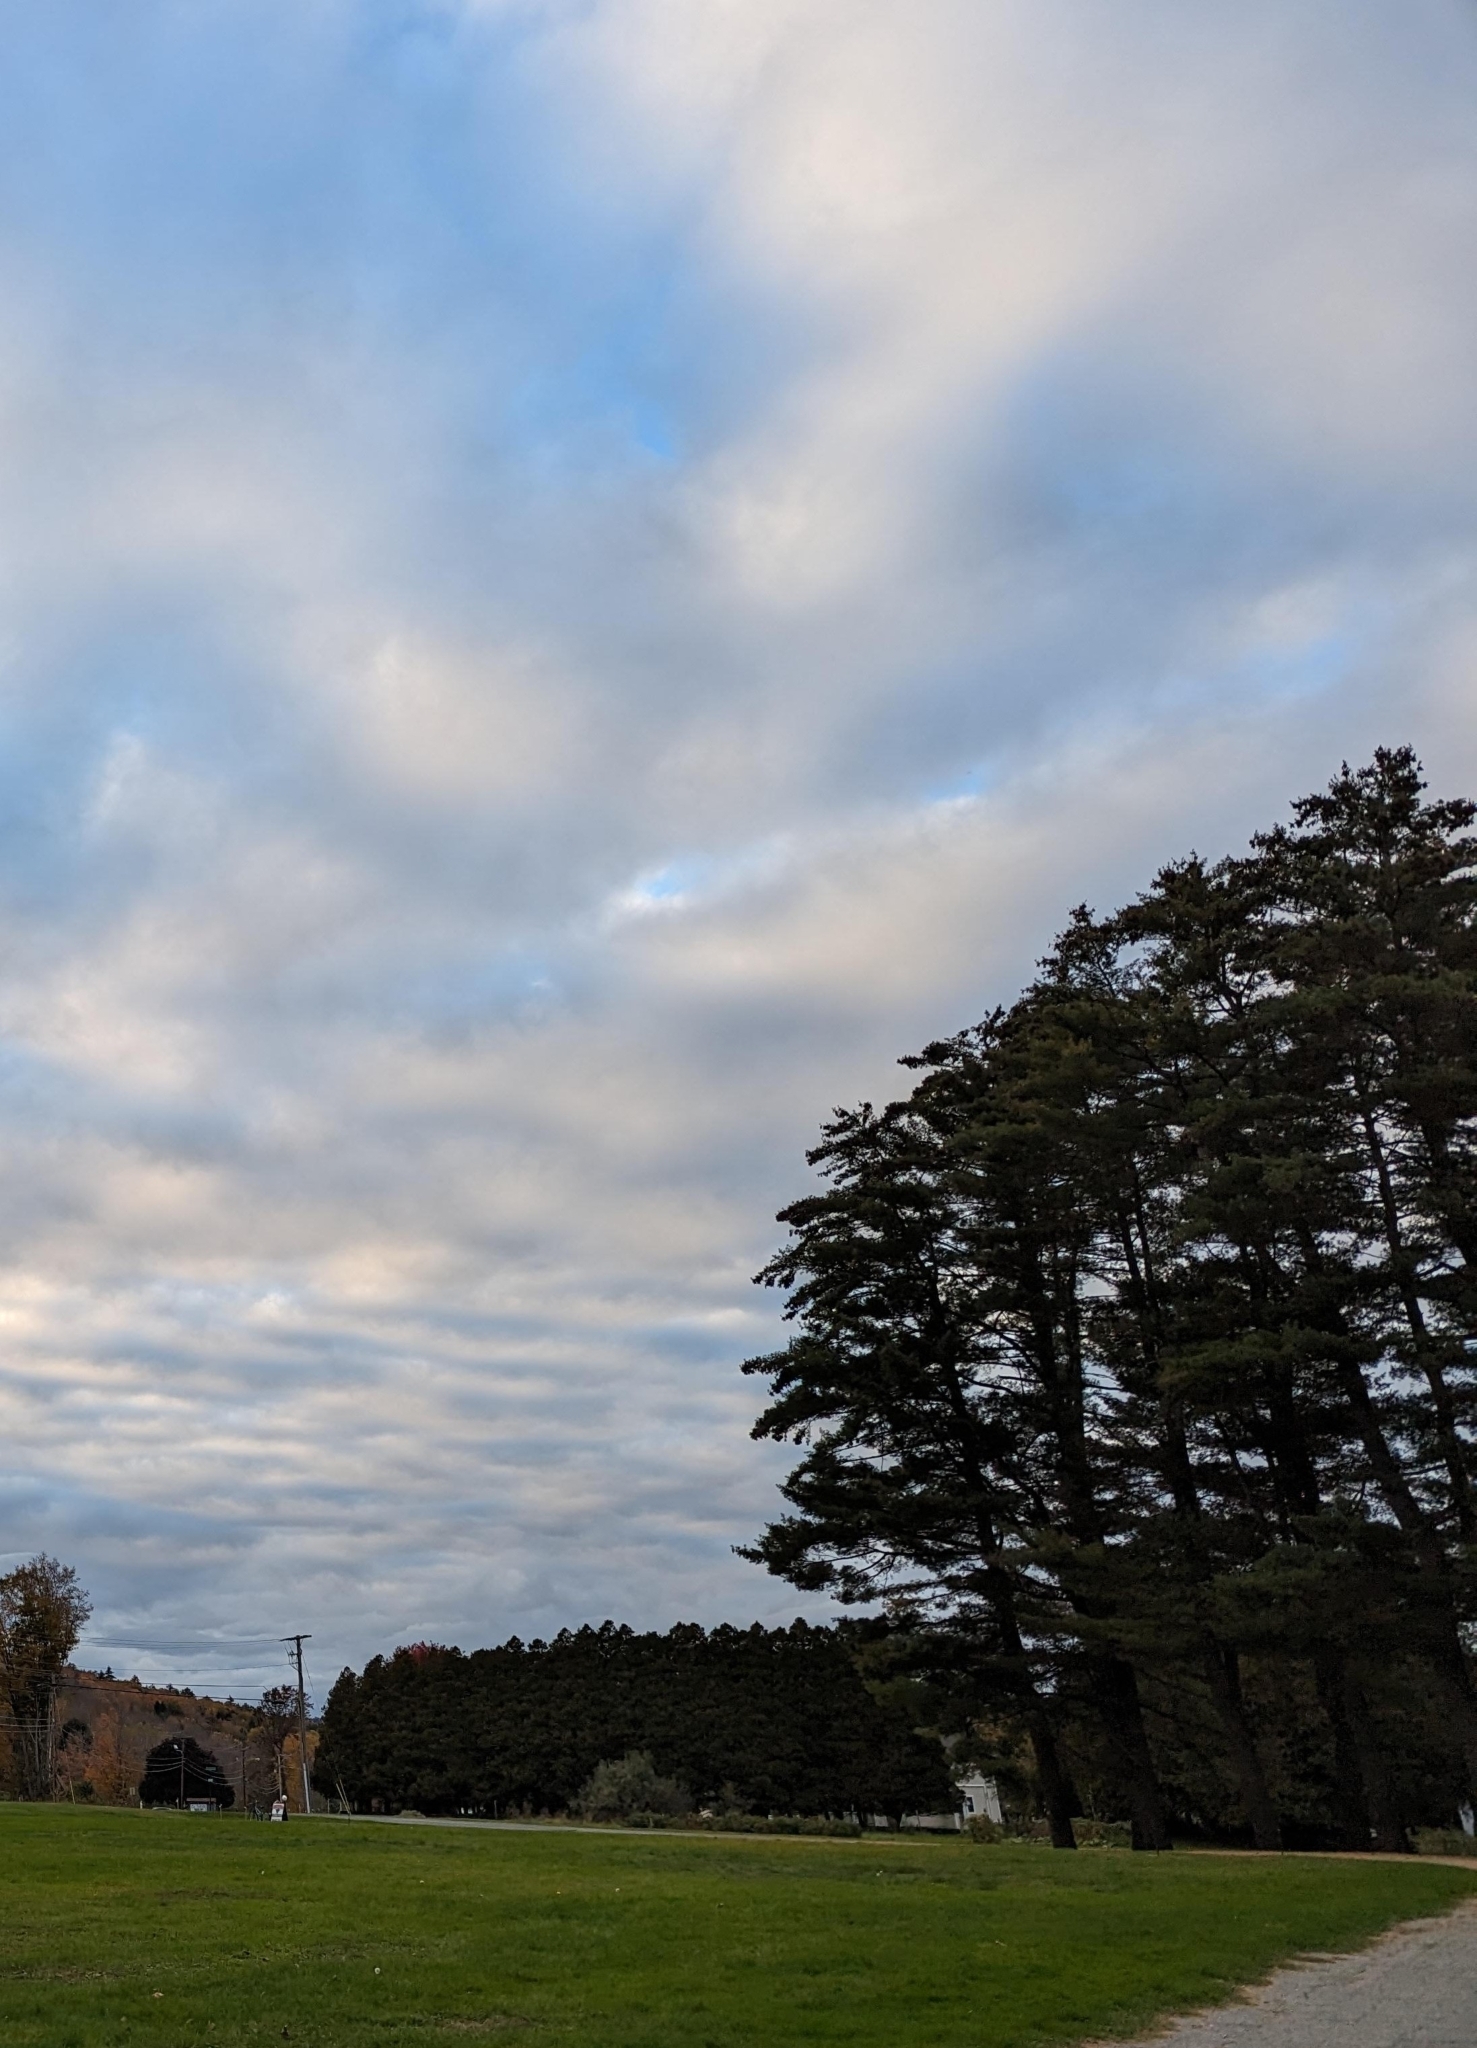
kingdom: Plantae
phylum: Tracheophyta
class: Pinopsida
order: Pinales
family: Pinaceae
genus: Pinus
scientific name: Pinus strobus
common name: Weymouth pine
